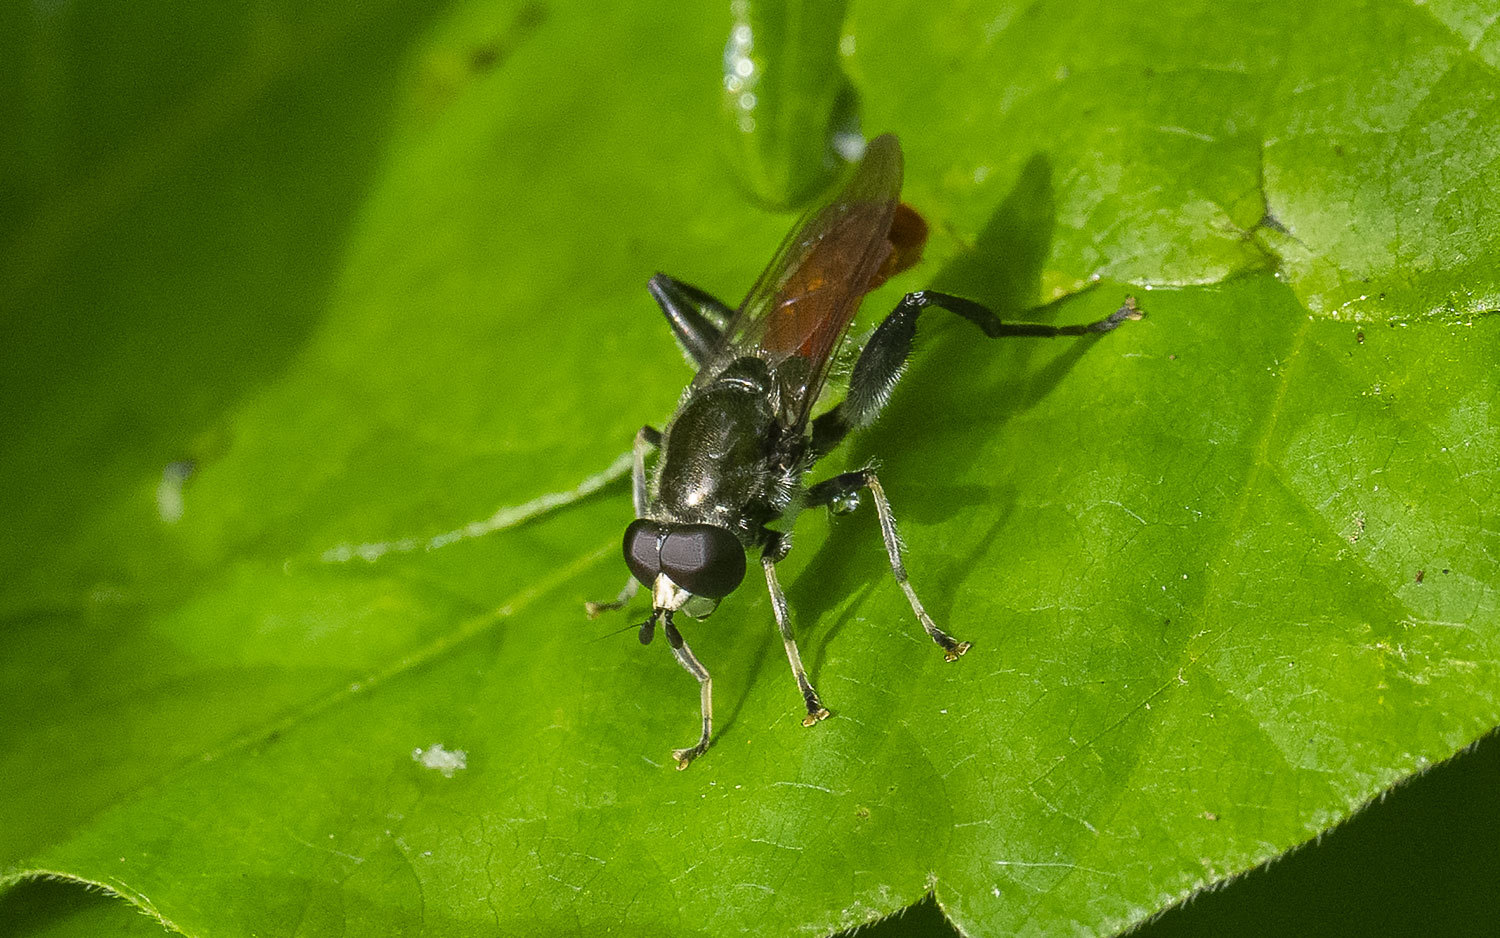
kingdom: Animalia
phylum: Arthropoda
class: Insecta
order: Diptera
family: Syrphidae
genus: Brachypalpoides
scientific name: Brachypalpoides bicolor
